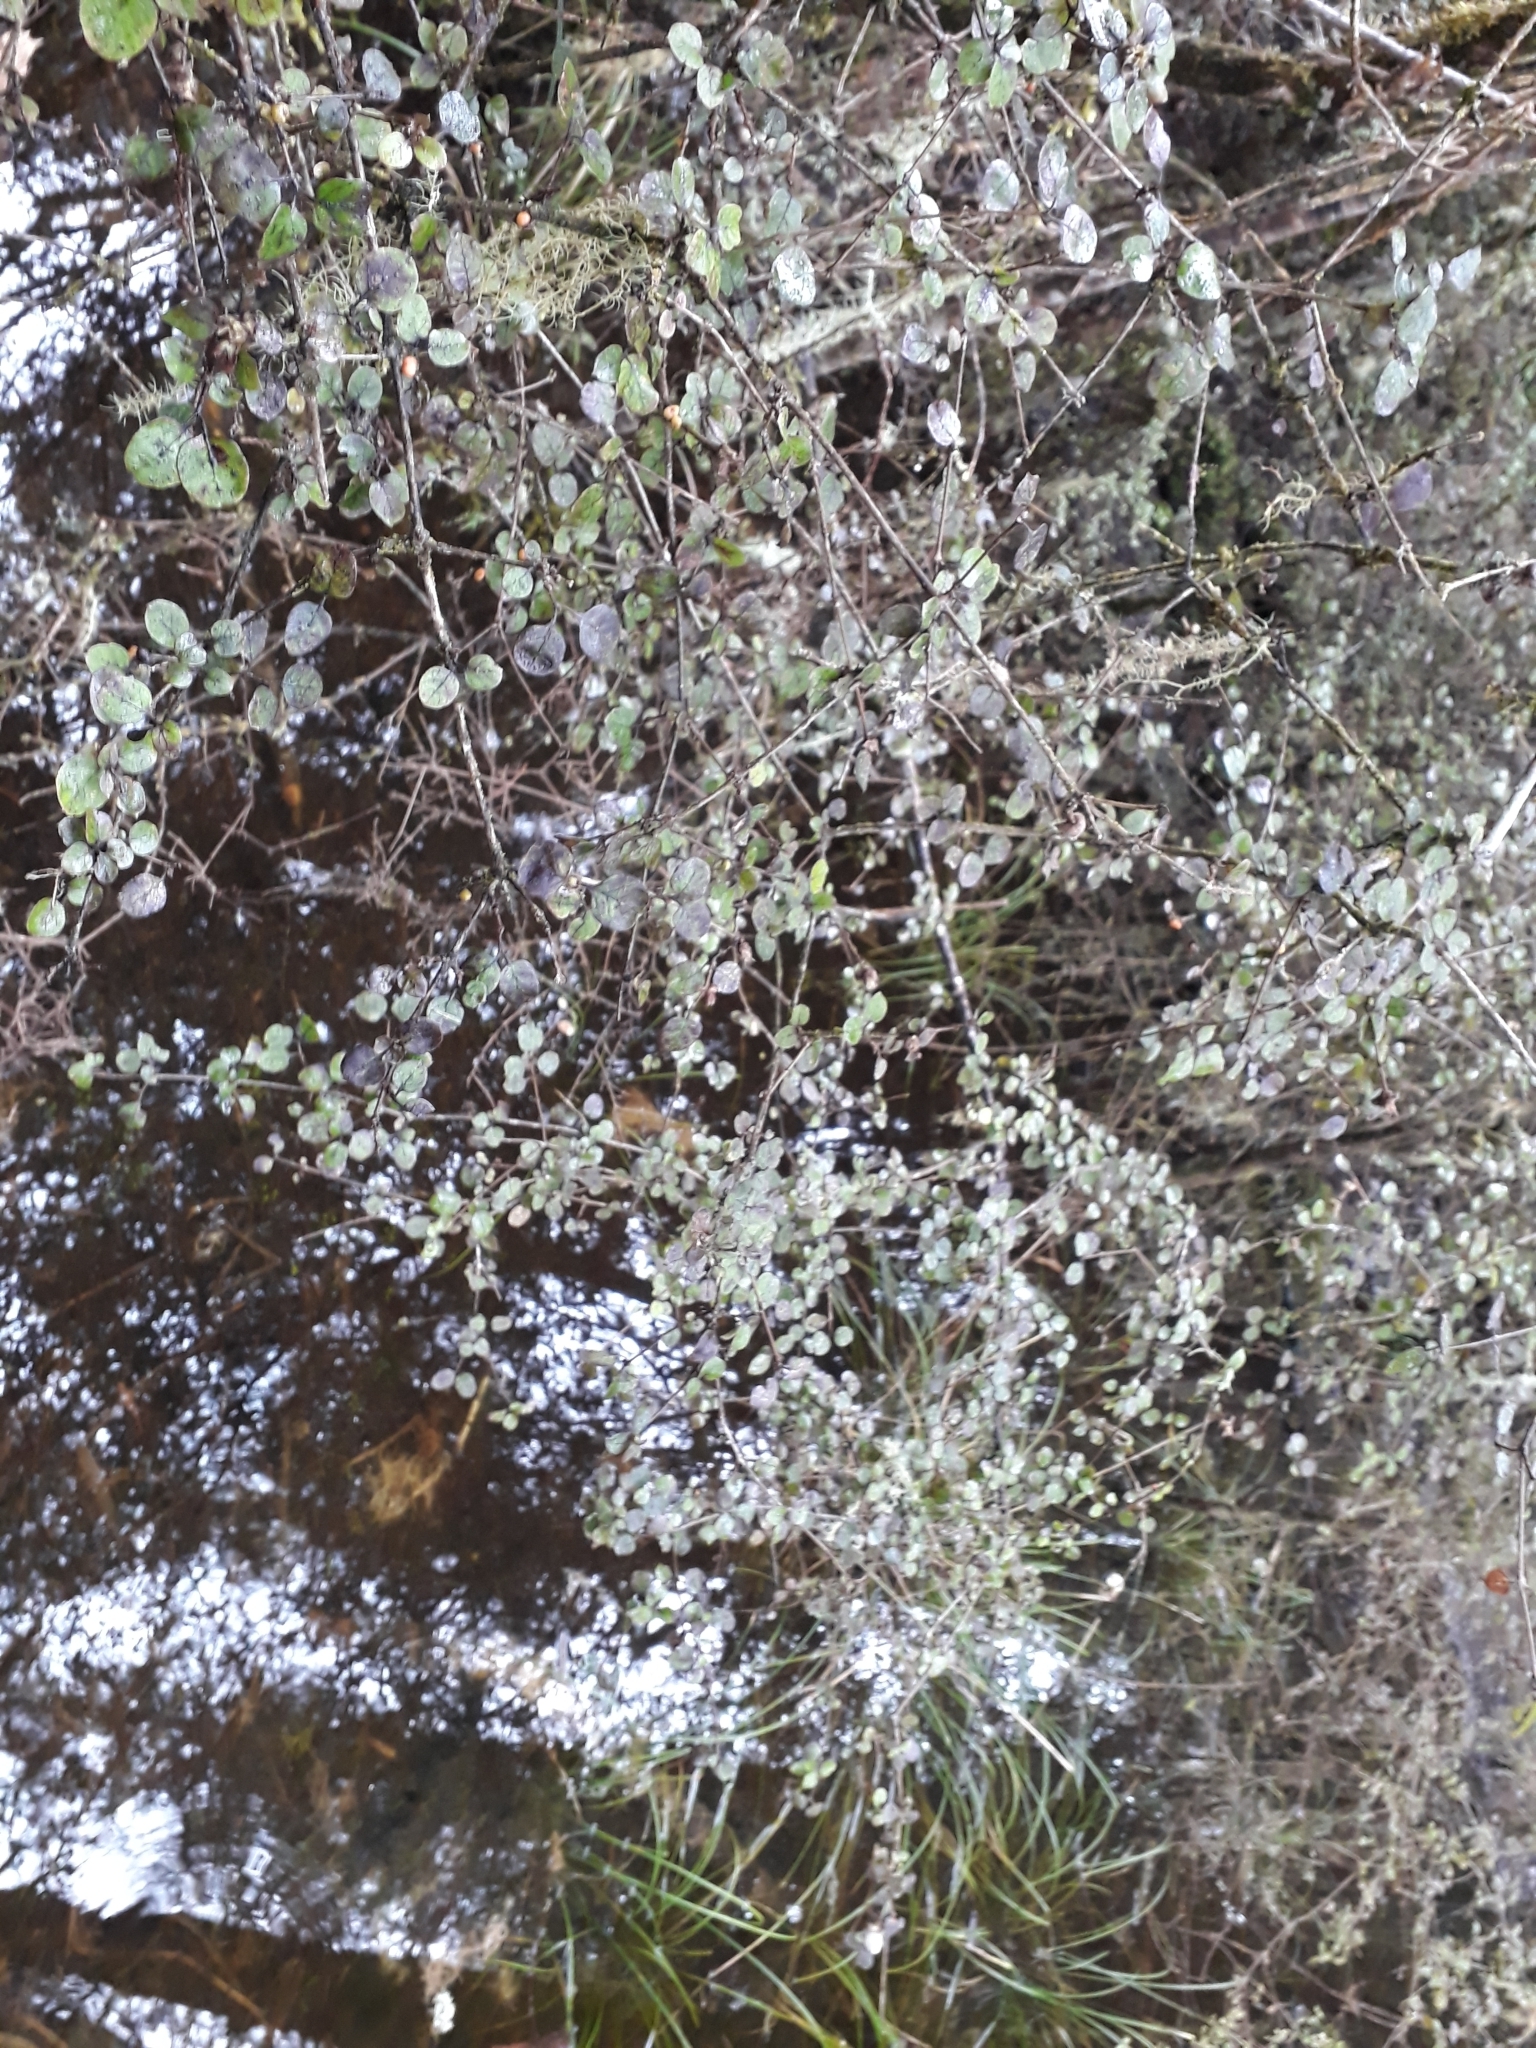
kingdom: Plantae
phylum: Tracheophyta
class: Magnoliopsida
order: Gentianales
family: Rubiaceae
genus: Coprosma
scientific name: Coprosma rotundifolia
